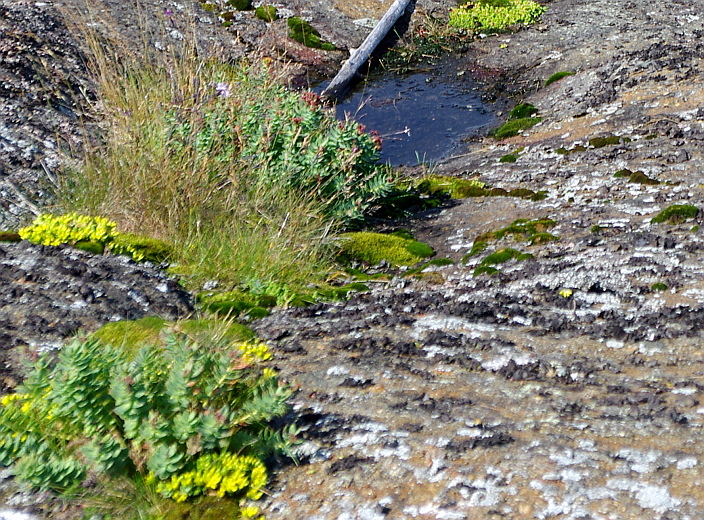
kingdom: Plantae
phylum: Tracheophyta
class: Magnoliopsida
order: Saxifragales
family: Crassulaceae
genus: Rhodiola
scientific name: Rhodiola rosea
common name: Roseroot
